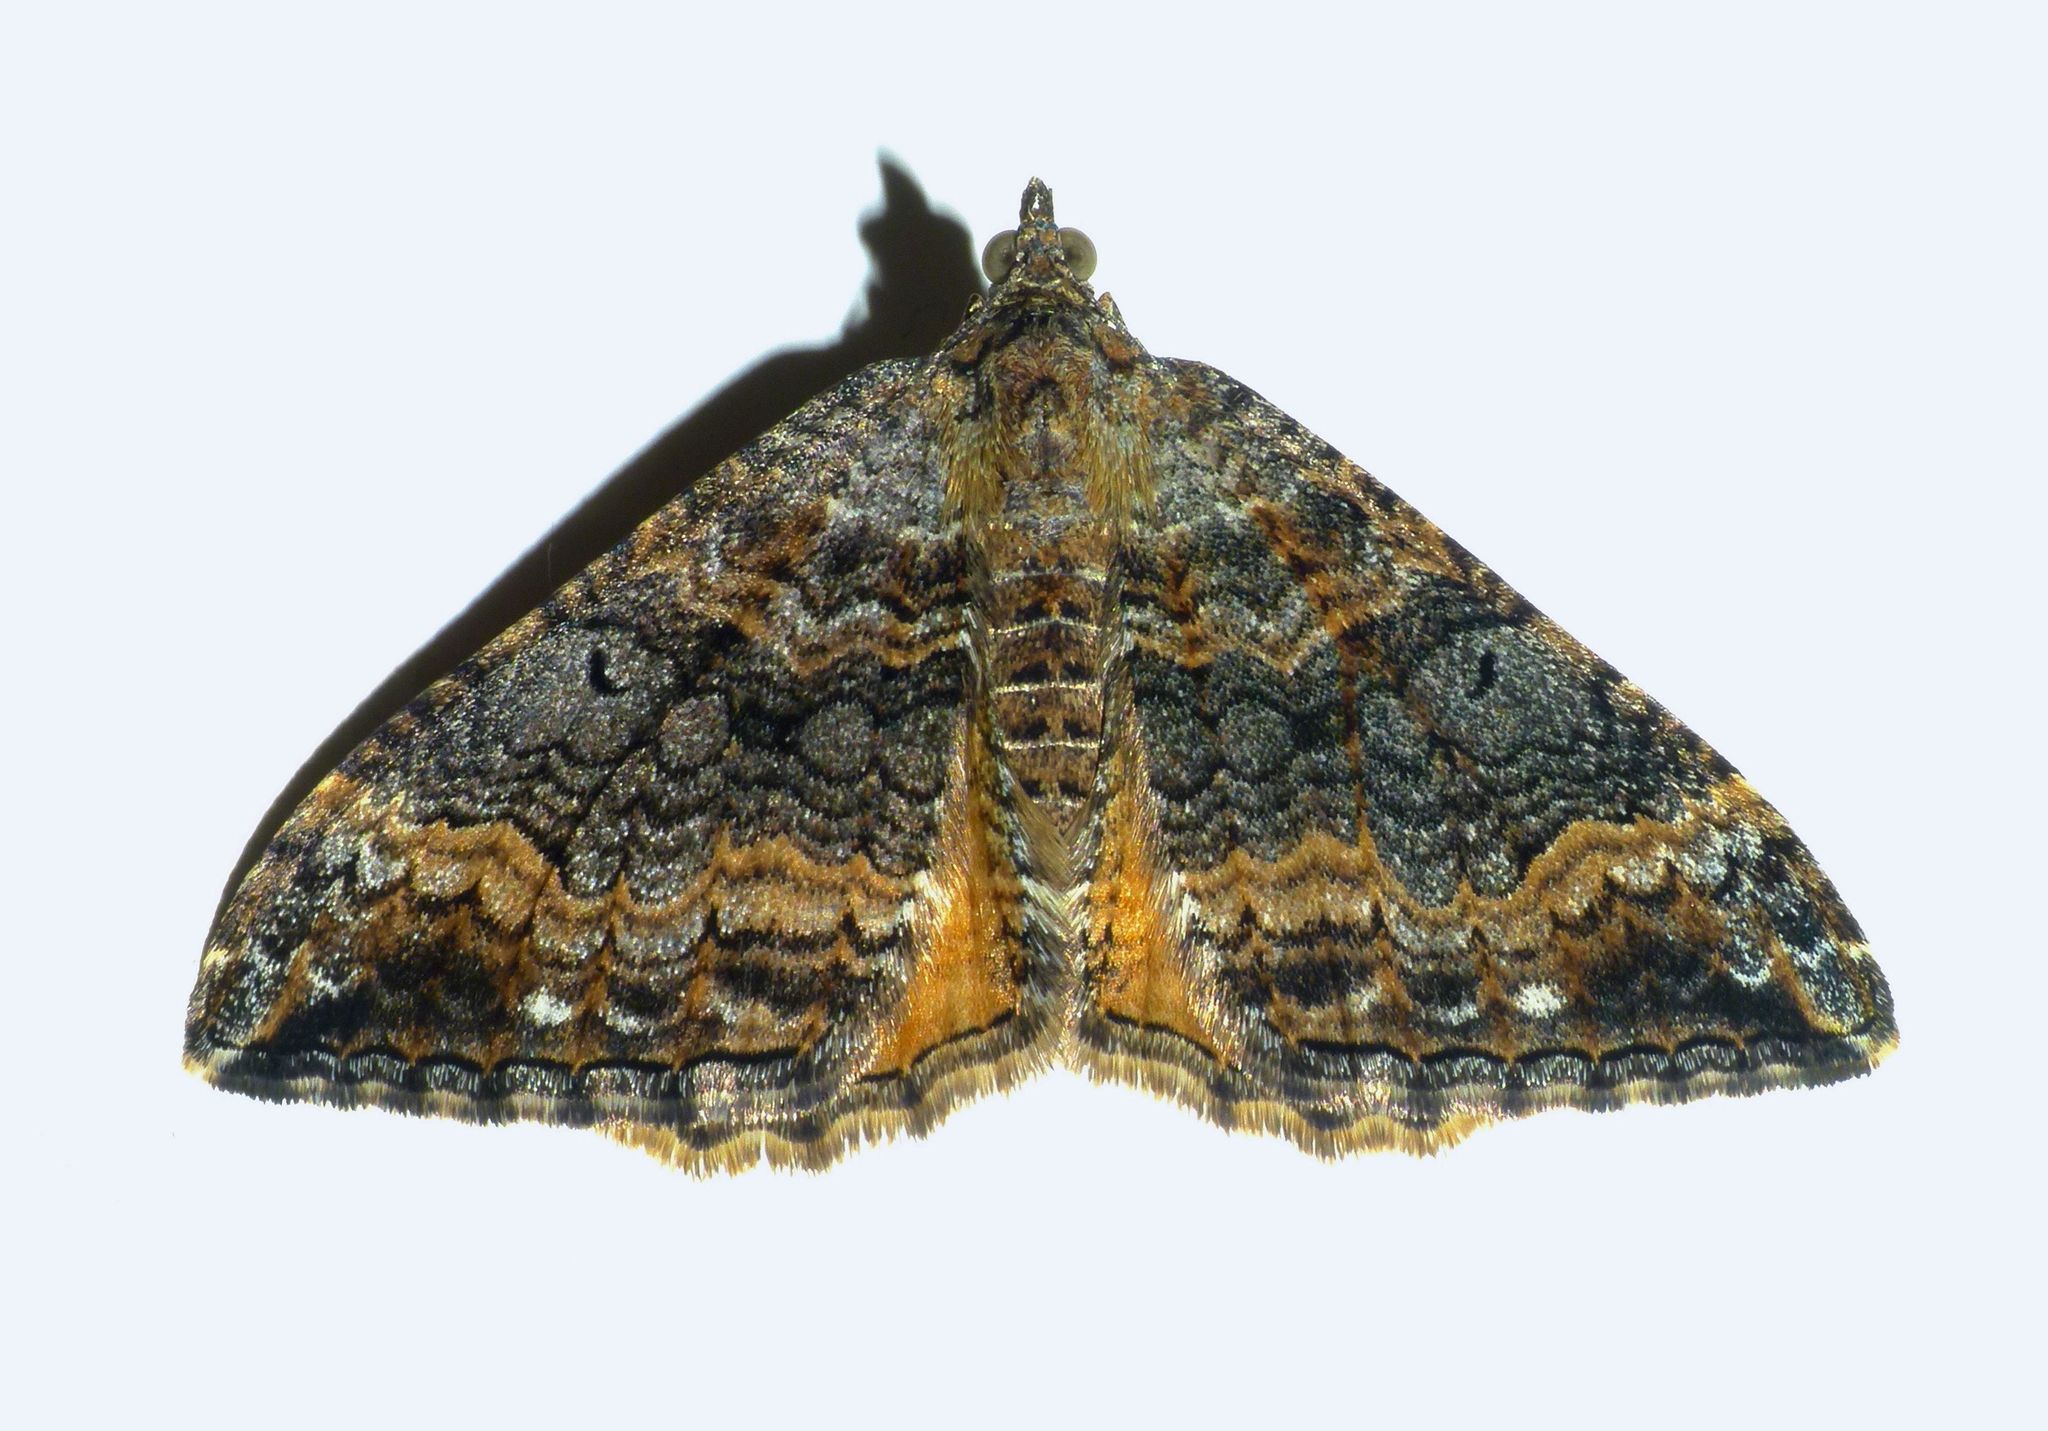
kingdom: Animalia
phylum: Arthropoda
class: Insecta
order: Lepidoptera
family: Geometridae
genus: Hydriomena
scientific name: Hydriomena deltoidata
